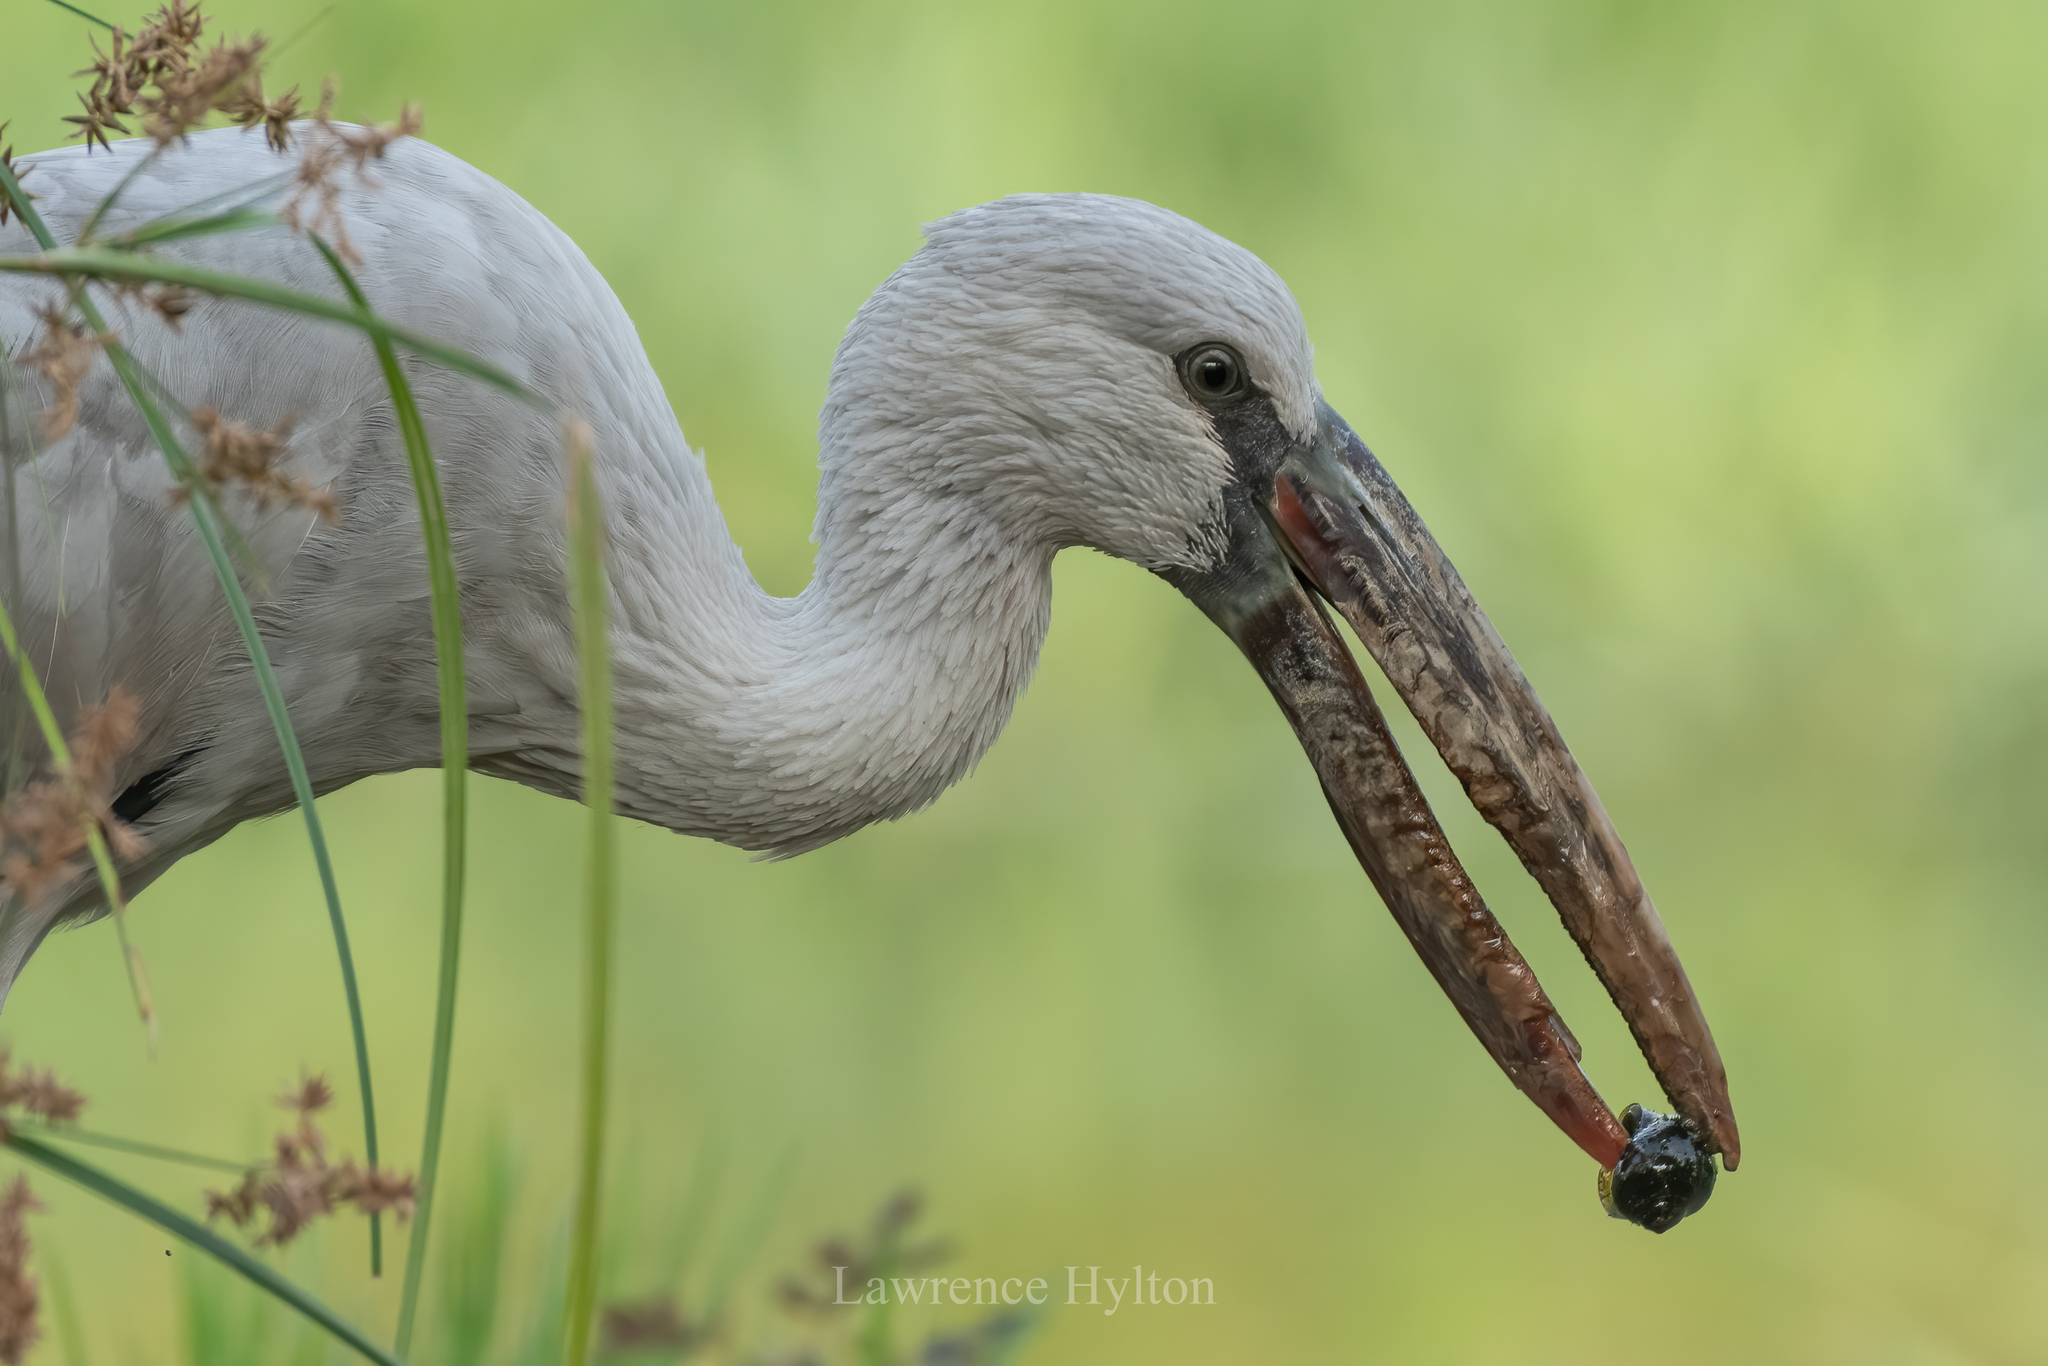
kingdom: Animalia
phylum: Chordata
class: Aves
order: Ciconiiformes
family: Ciconiidae
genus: Anastomus
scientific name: Anastomus oscitans
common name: Asian openbill
